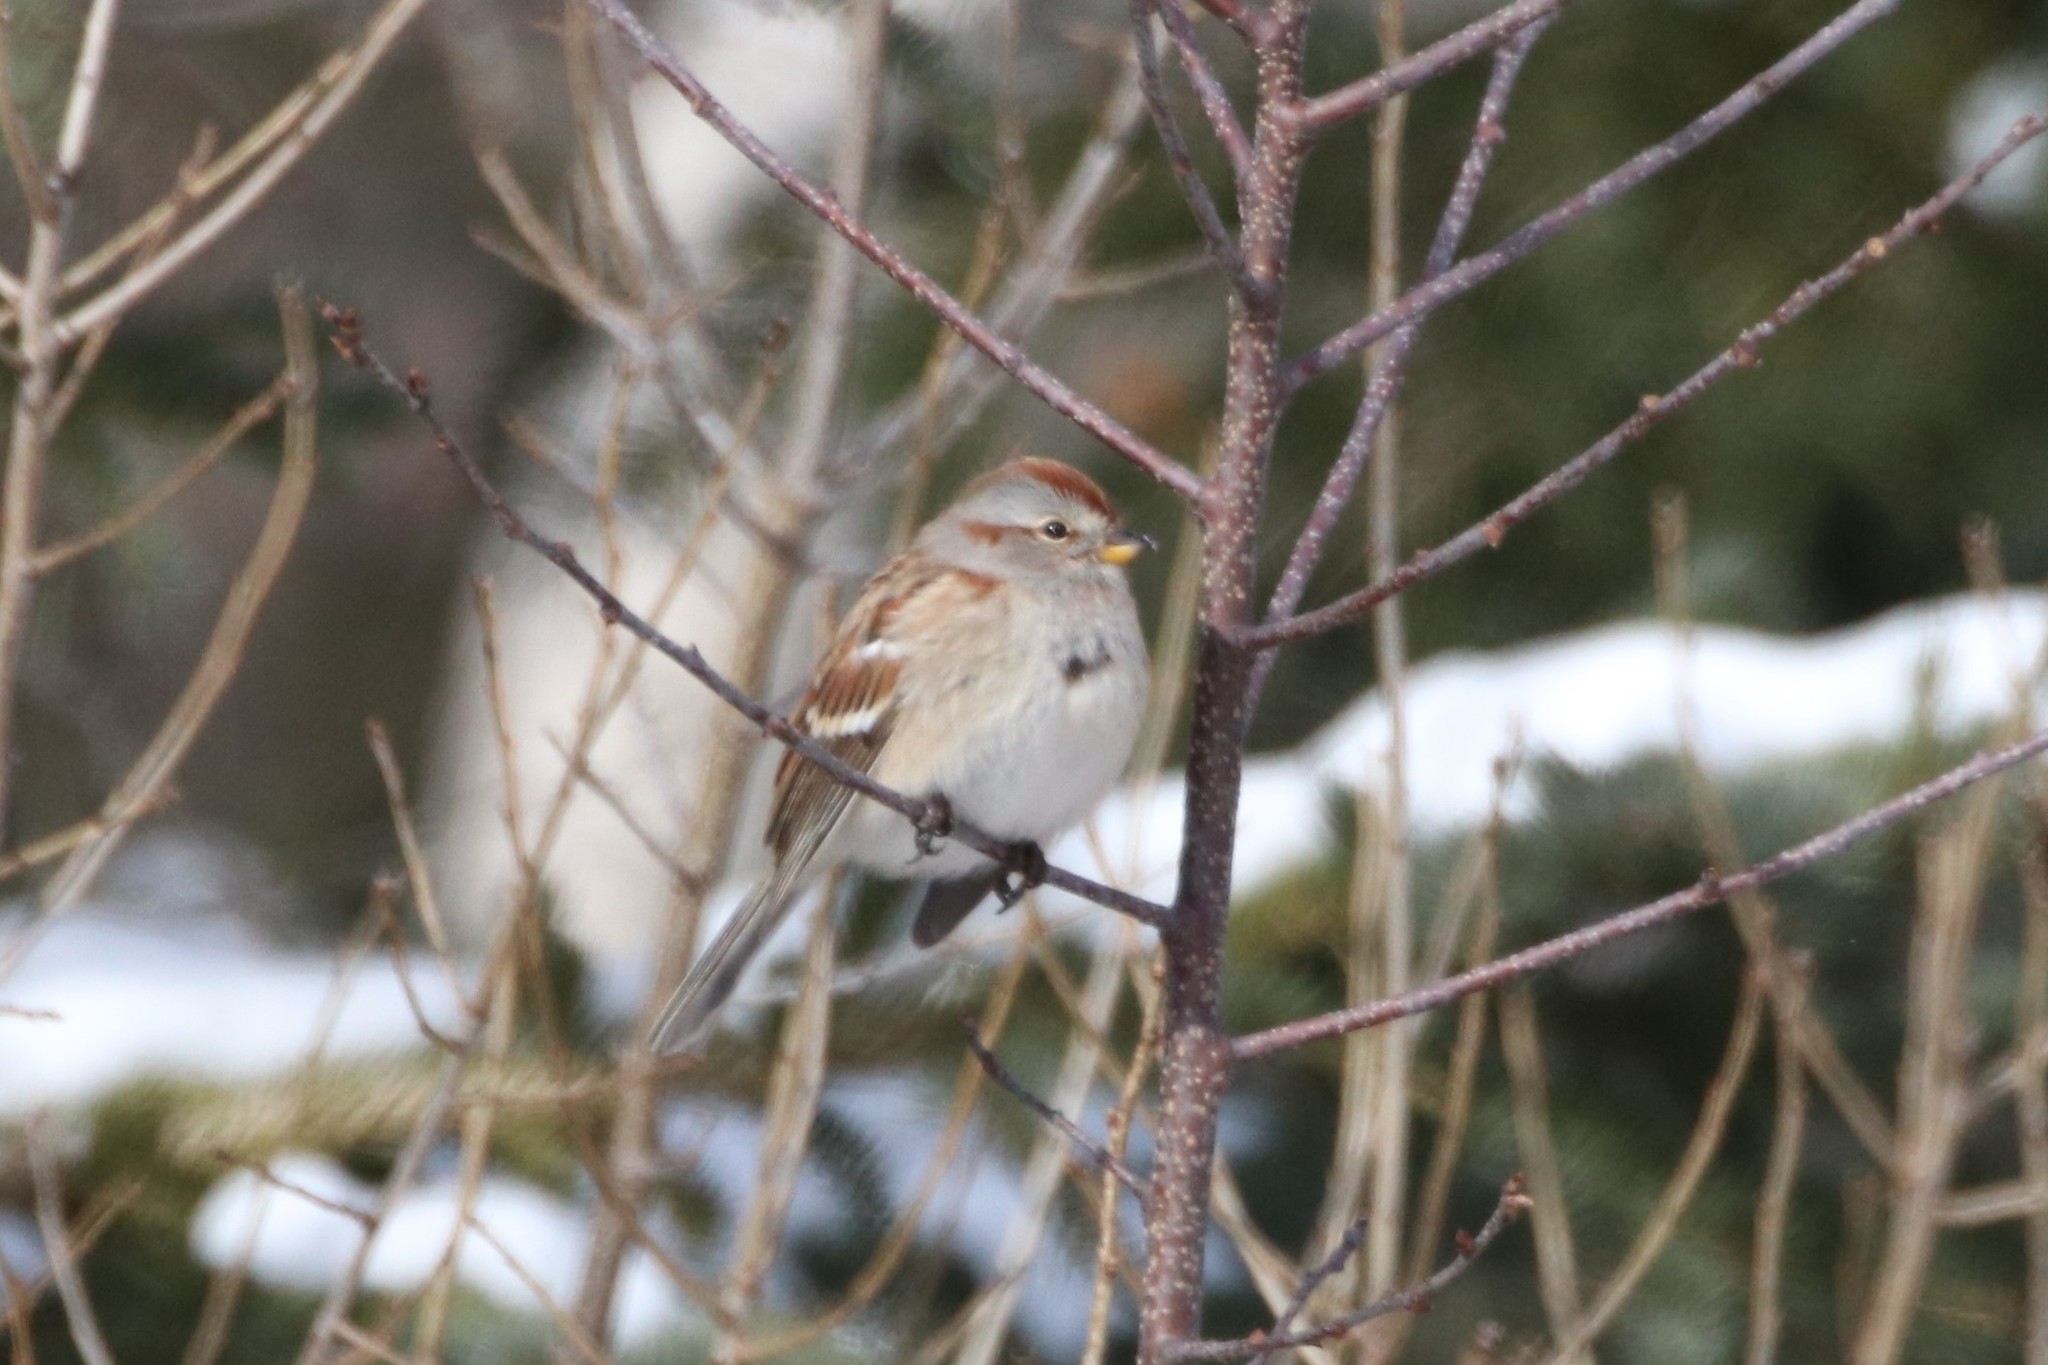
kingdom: Animalia
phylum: Chordata
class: Aves
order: Passeriformes
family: Passerellidae
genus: Spizelloides
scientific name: Spizelloides arborea
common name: American tree sparrow
